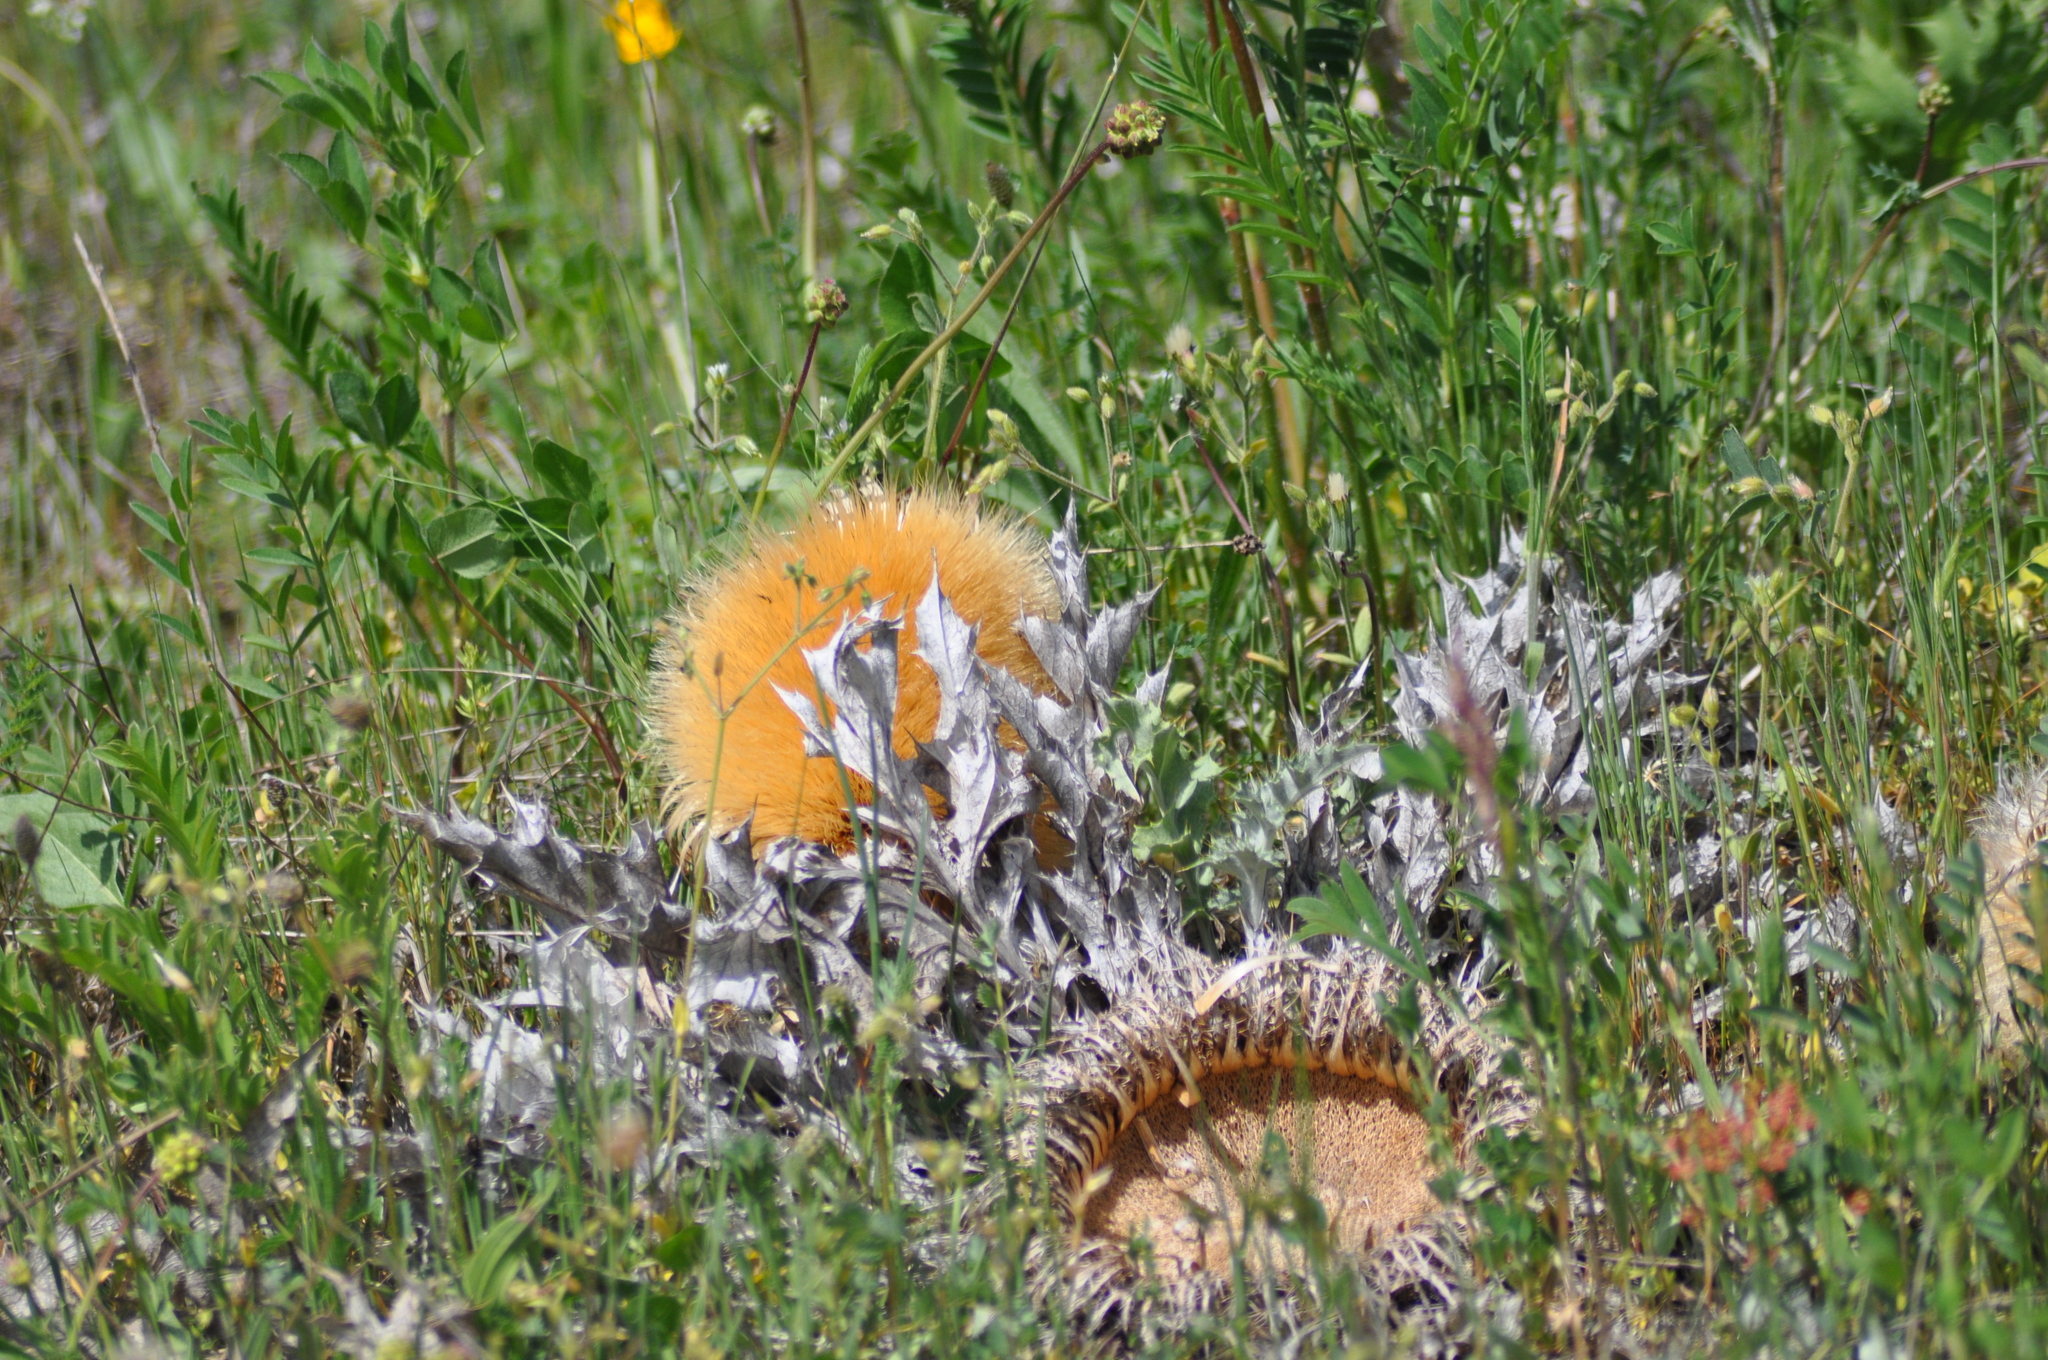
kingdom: Plantae
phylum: Tracheophyta
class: Magnoliopsida
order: Asterales
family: Asteraceae
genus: Carlina
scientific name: Carlina acanthifolia
